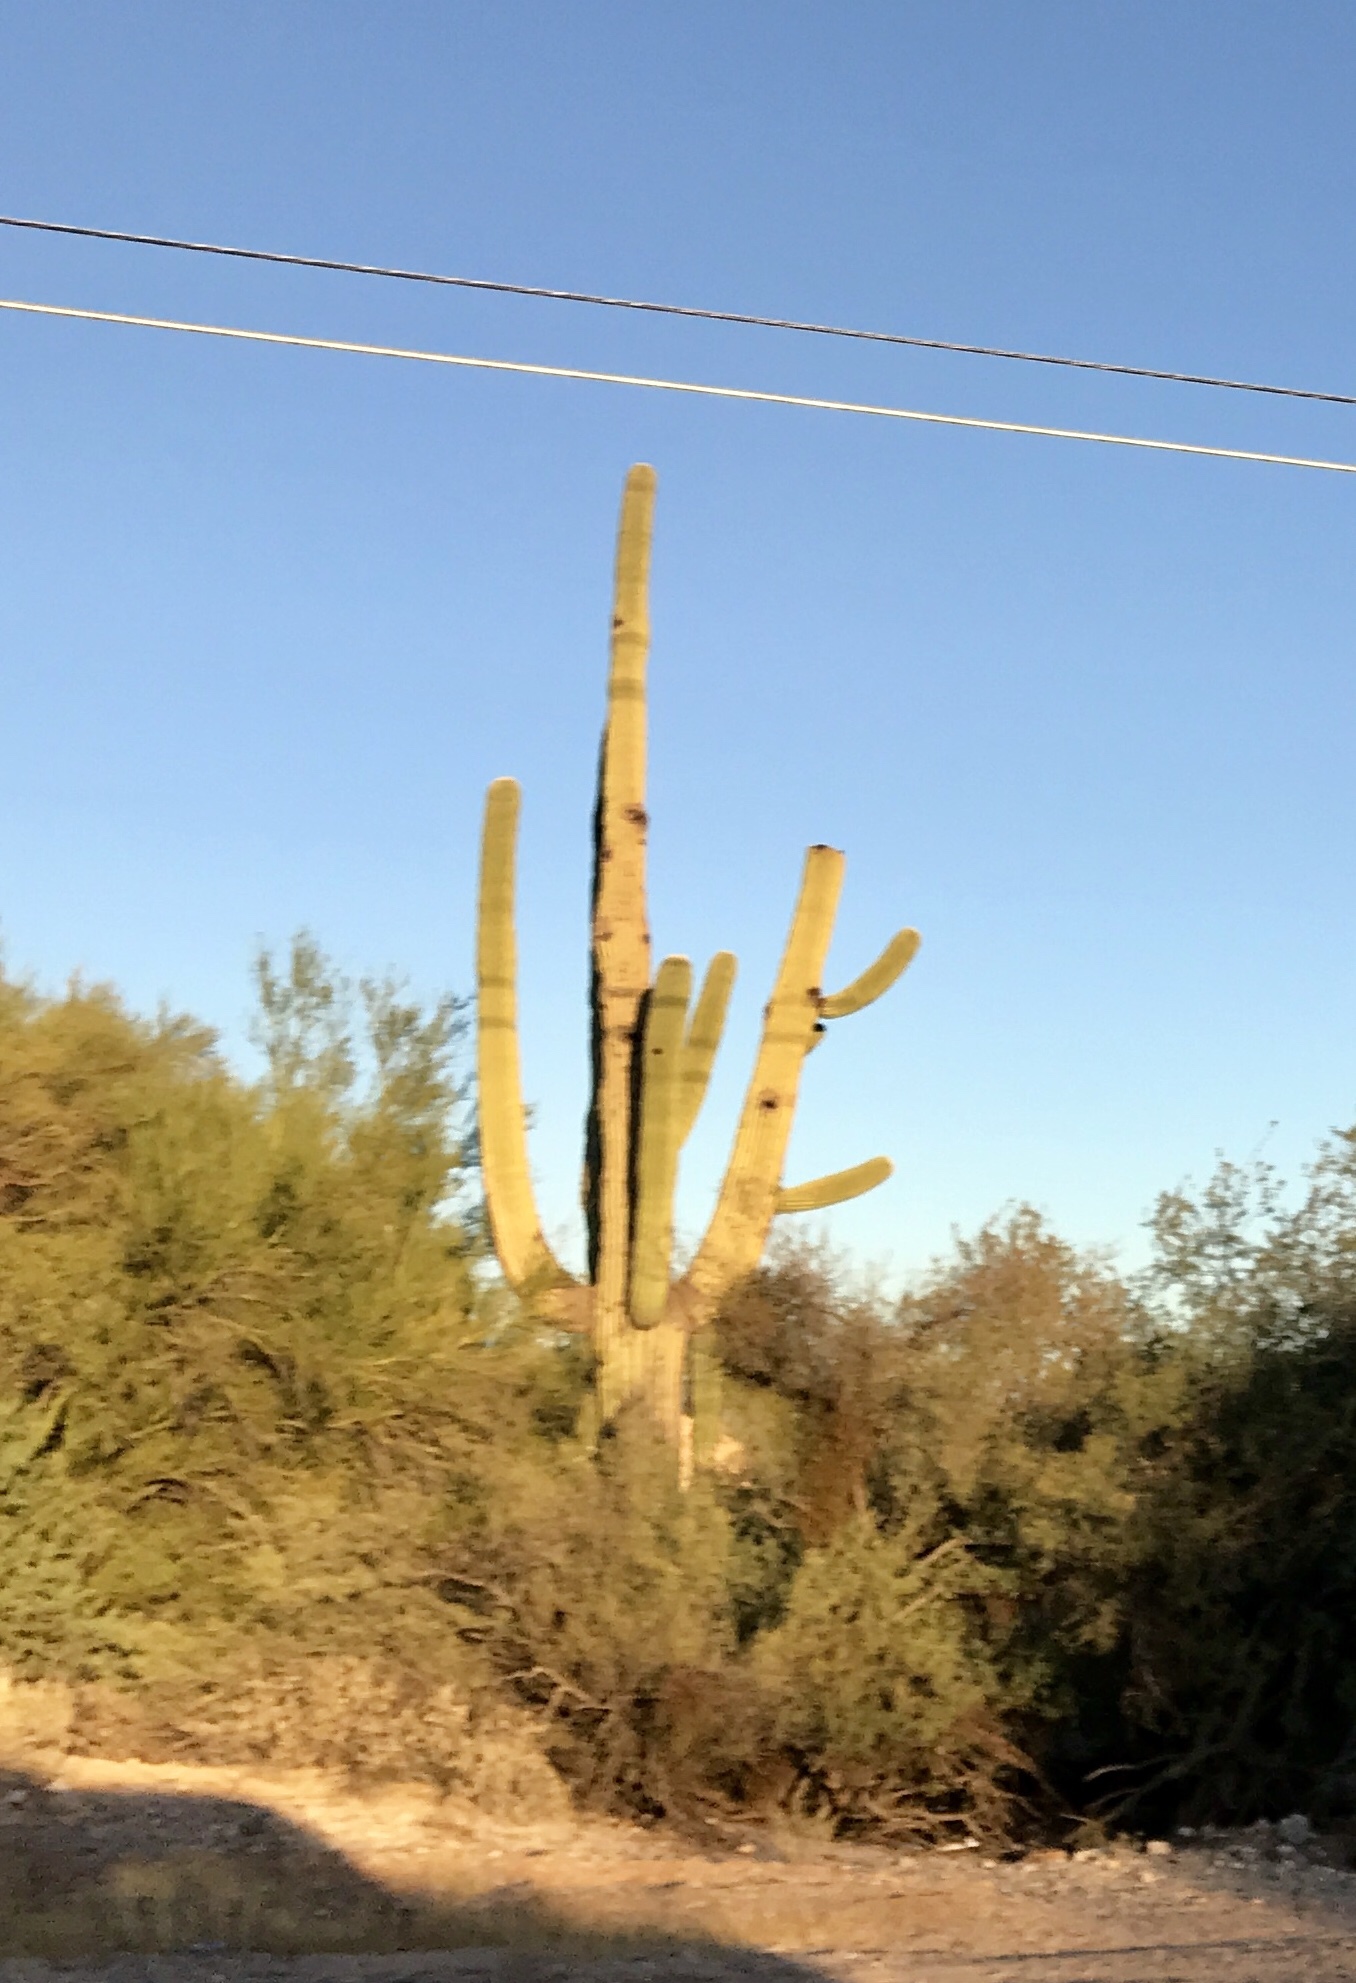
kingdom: Plantae
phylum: Tracheophyta
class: Magnoliopsida
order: Caryophyllales
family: Cactaceae
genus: Carnegiea
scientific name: Carnegiea gigantea
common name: Saguaro
